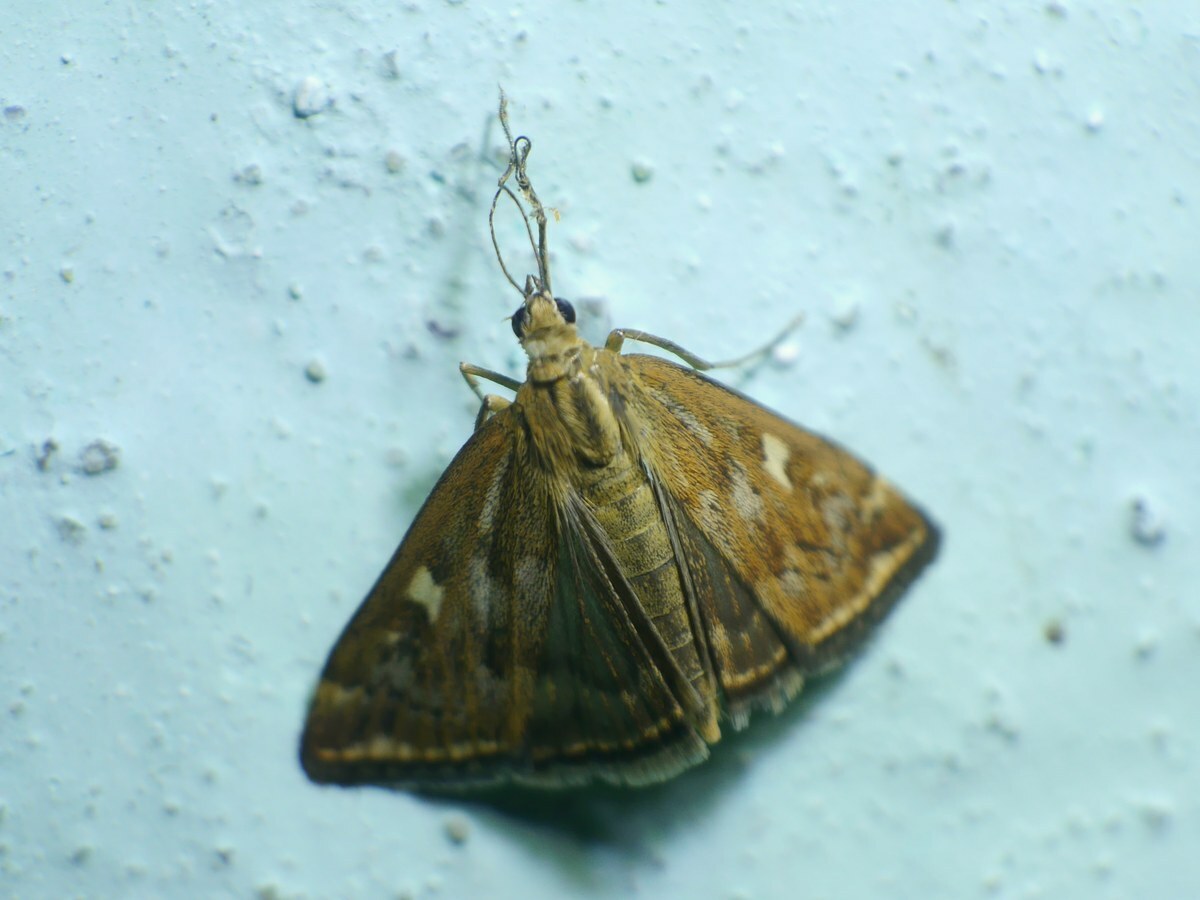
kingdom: Animalia
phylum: Arthropoda
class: Insecta
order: Lepidoptera
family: Crambidae
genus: Loxostege
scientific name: Loxostege sticticalis
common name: Crambid moth
